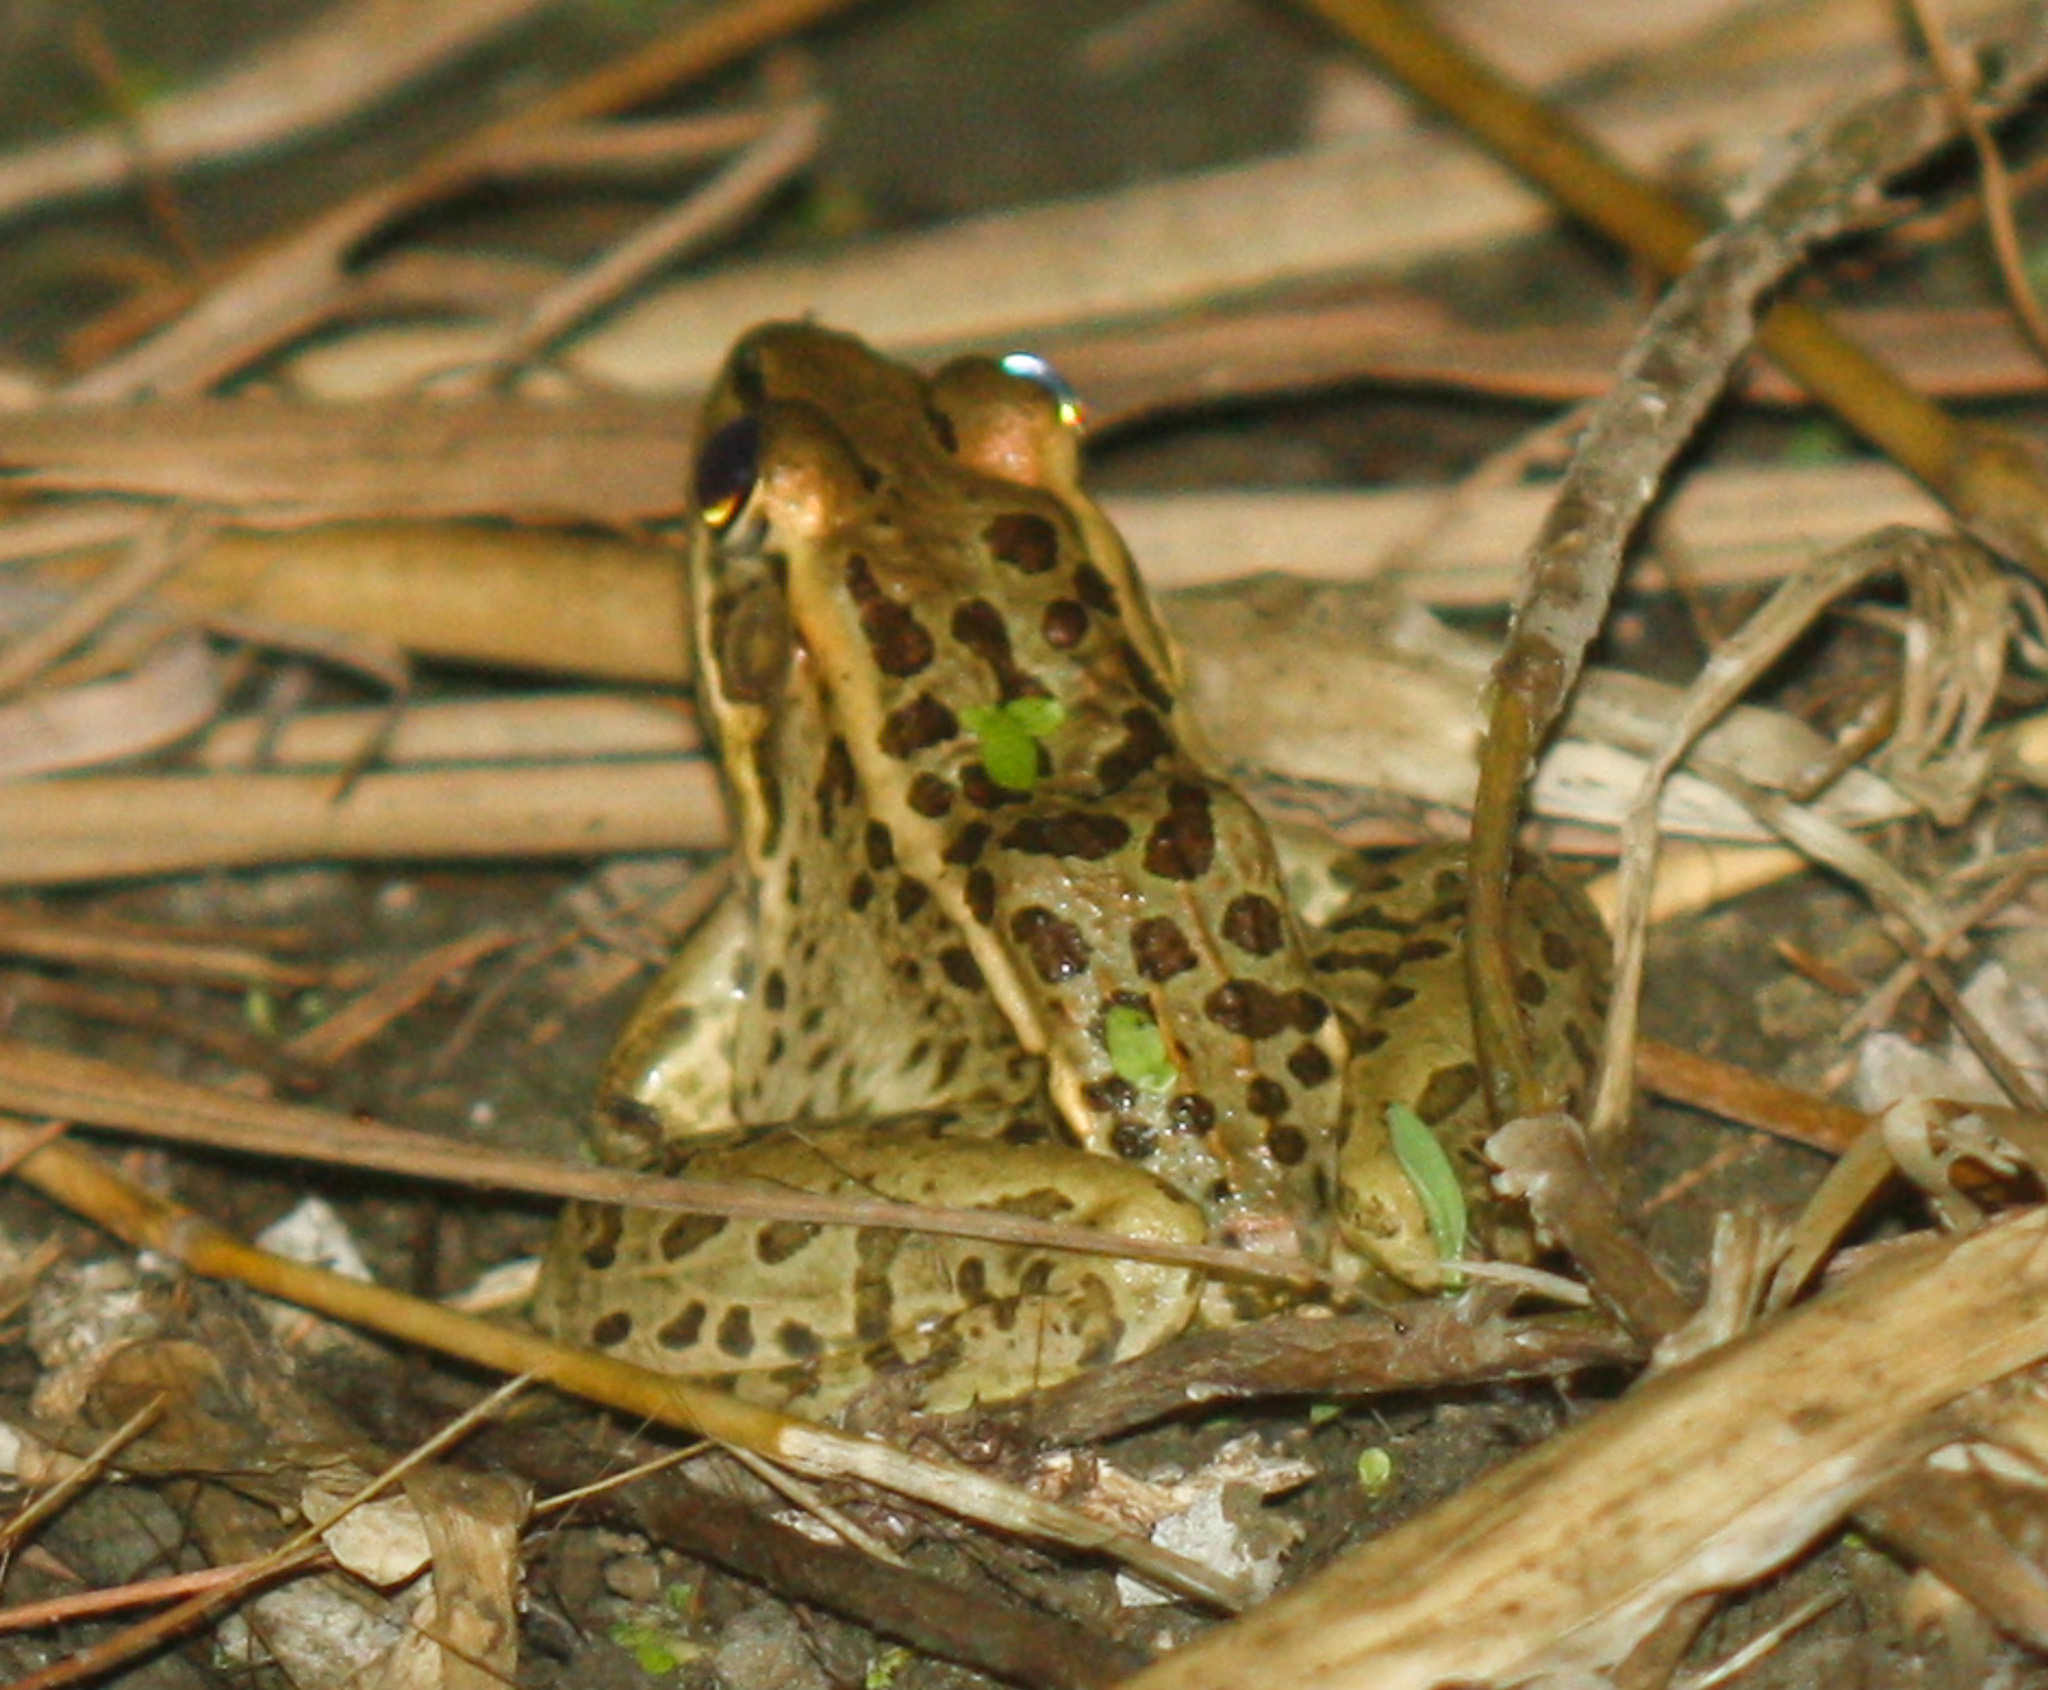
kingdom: Animalia
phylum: Chordata
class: Amphibia
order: Anura
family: Ranidae
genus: Lithobates
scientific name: Lithobates forreri
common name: Forrer's grass frog
